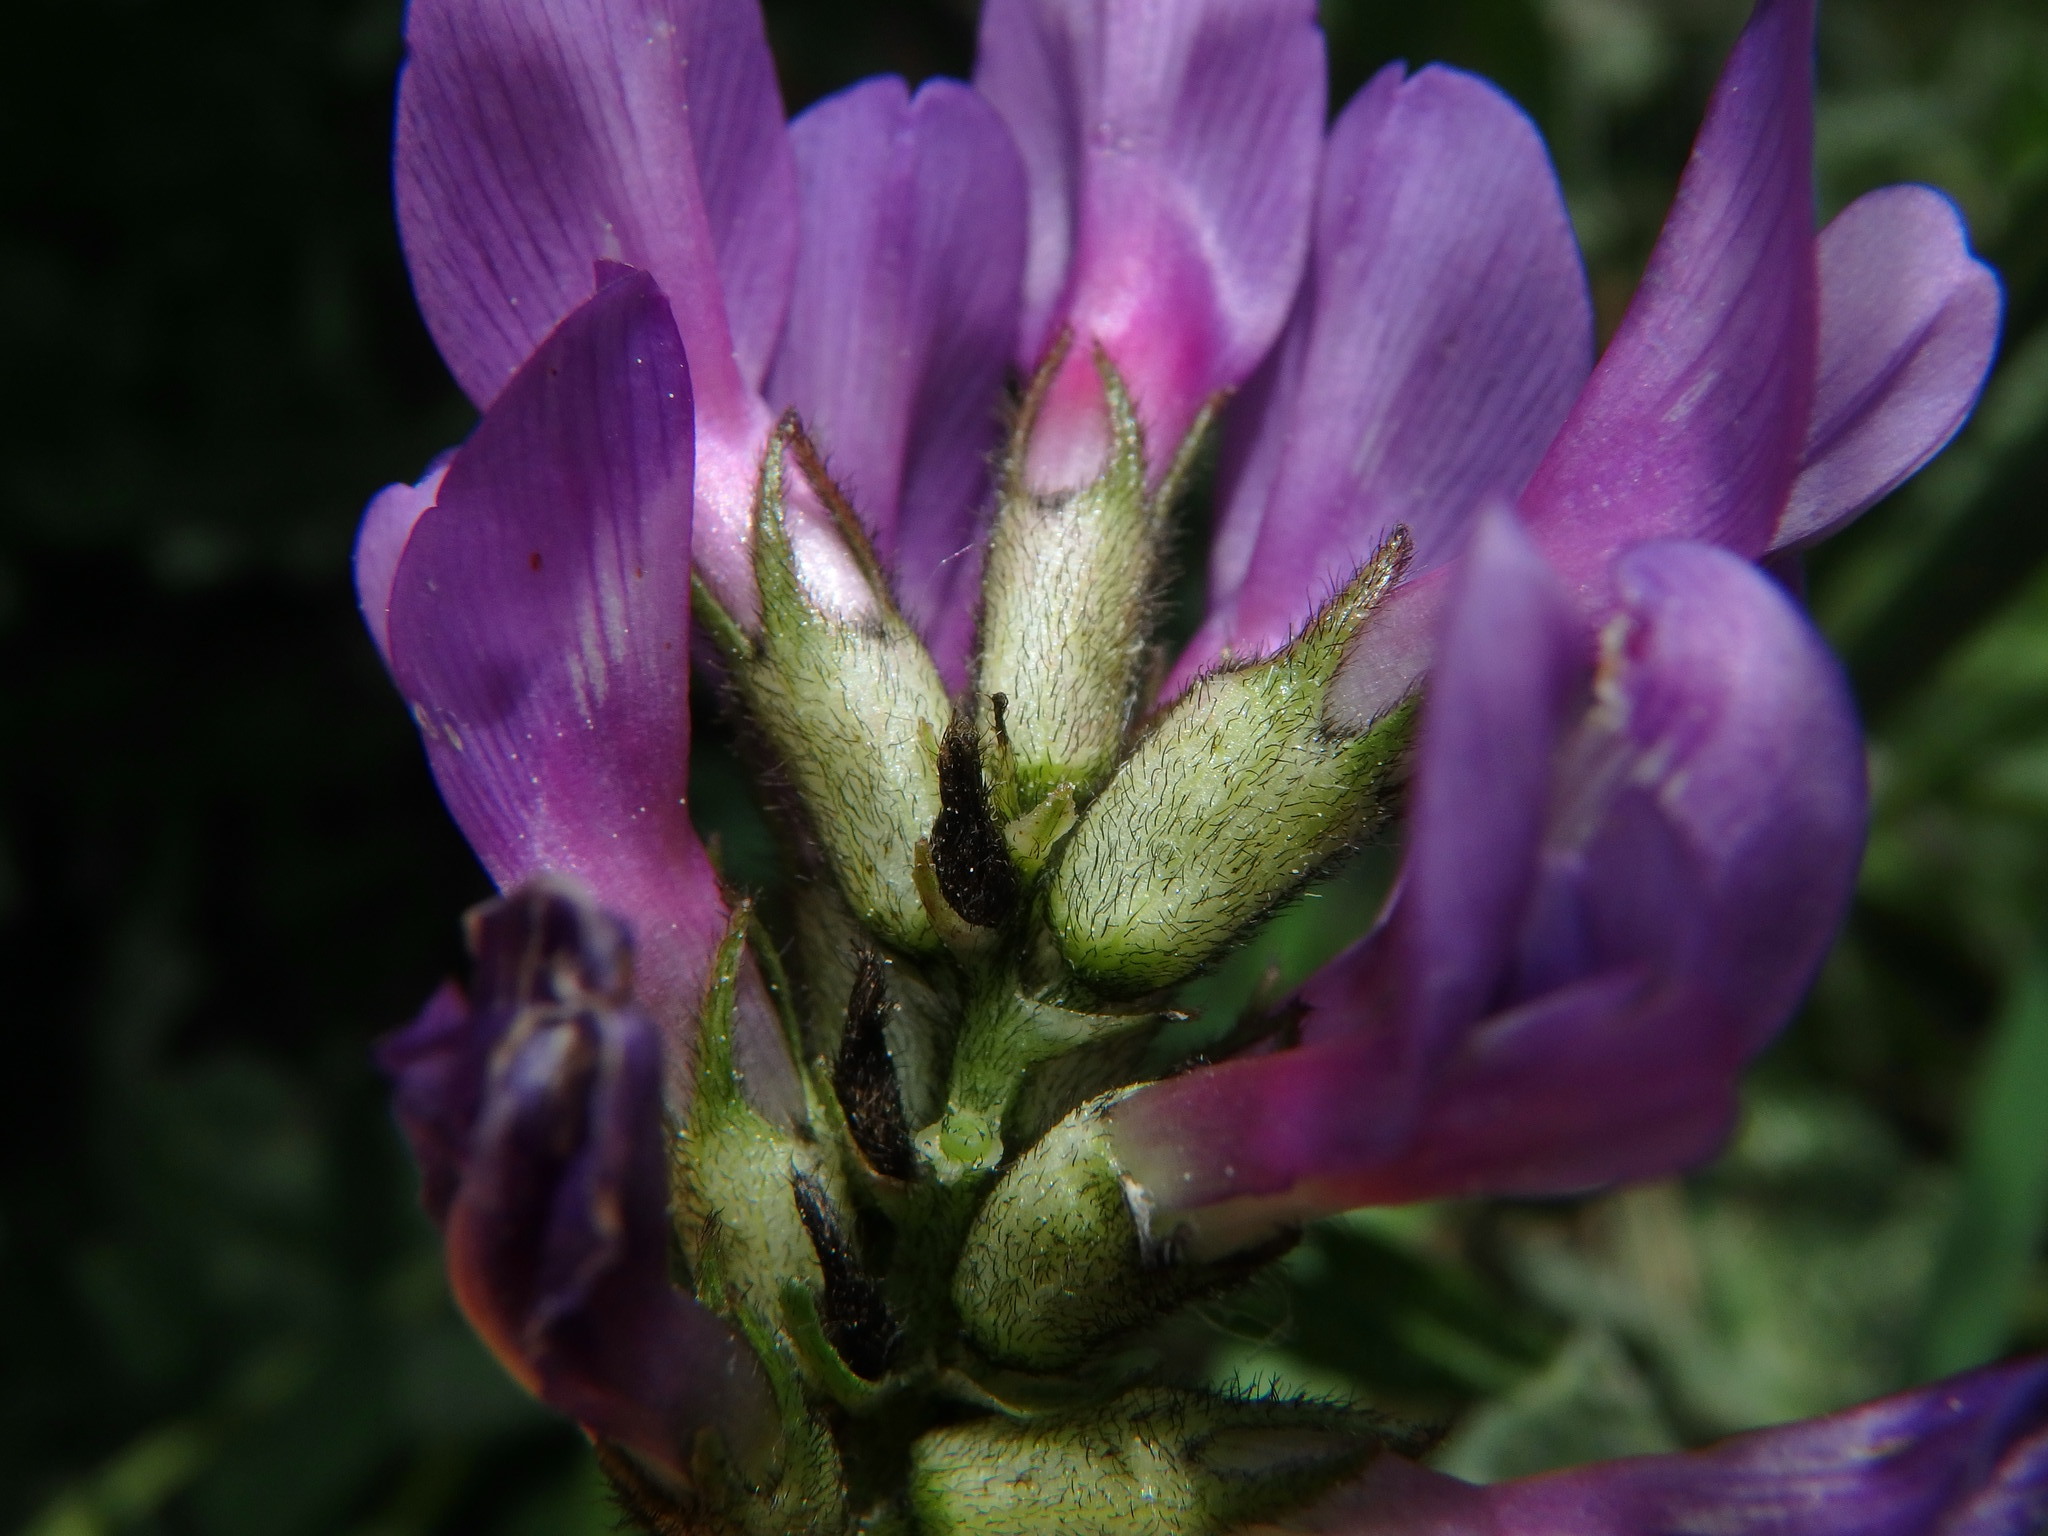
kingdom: Plantae
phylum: Tracheophyta
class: Magnoliopsida
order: Fabales
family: Fabaceae
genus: Astragalus
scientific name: Astragalus danicus
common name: Purple milk-vetch
